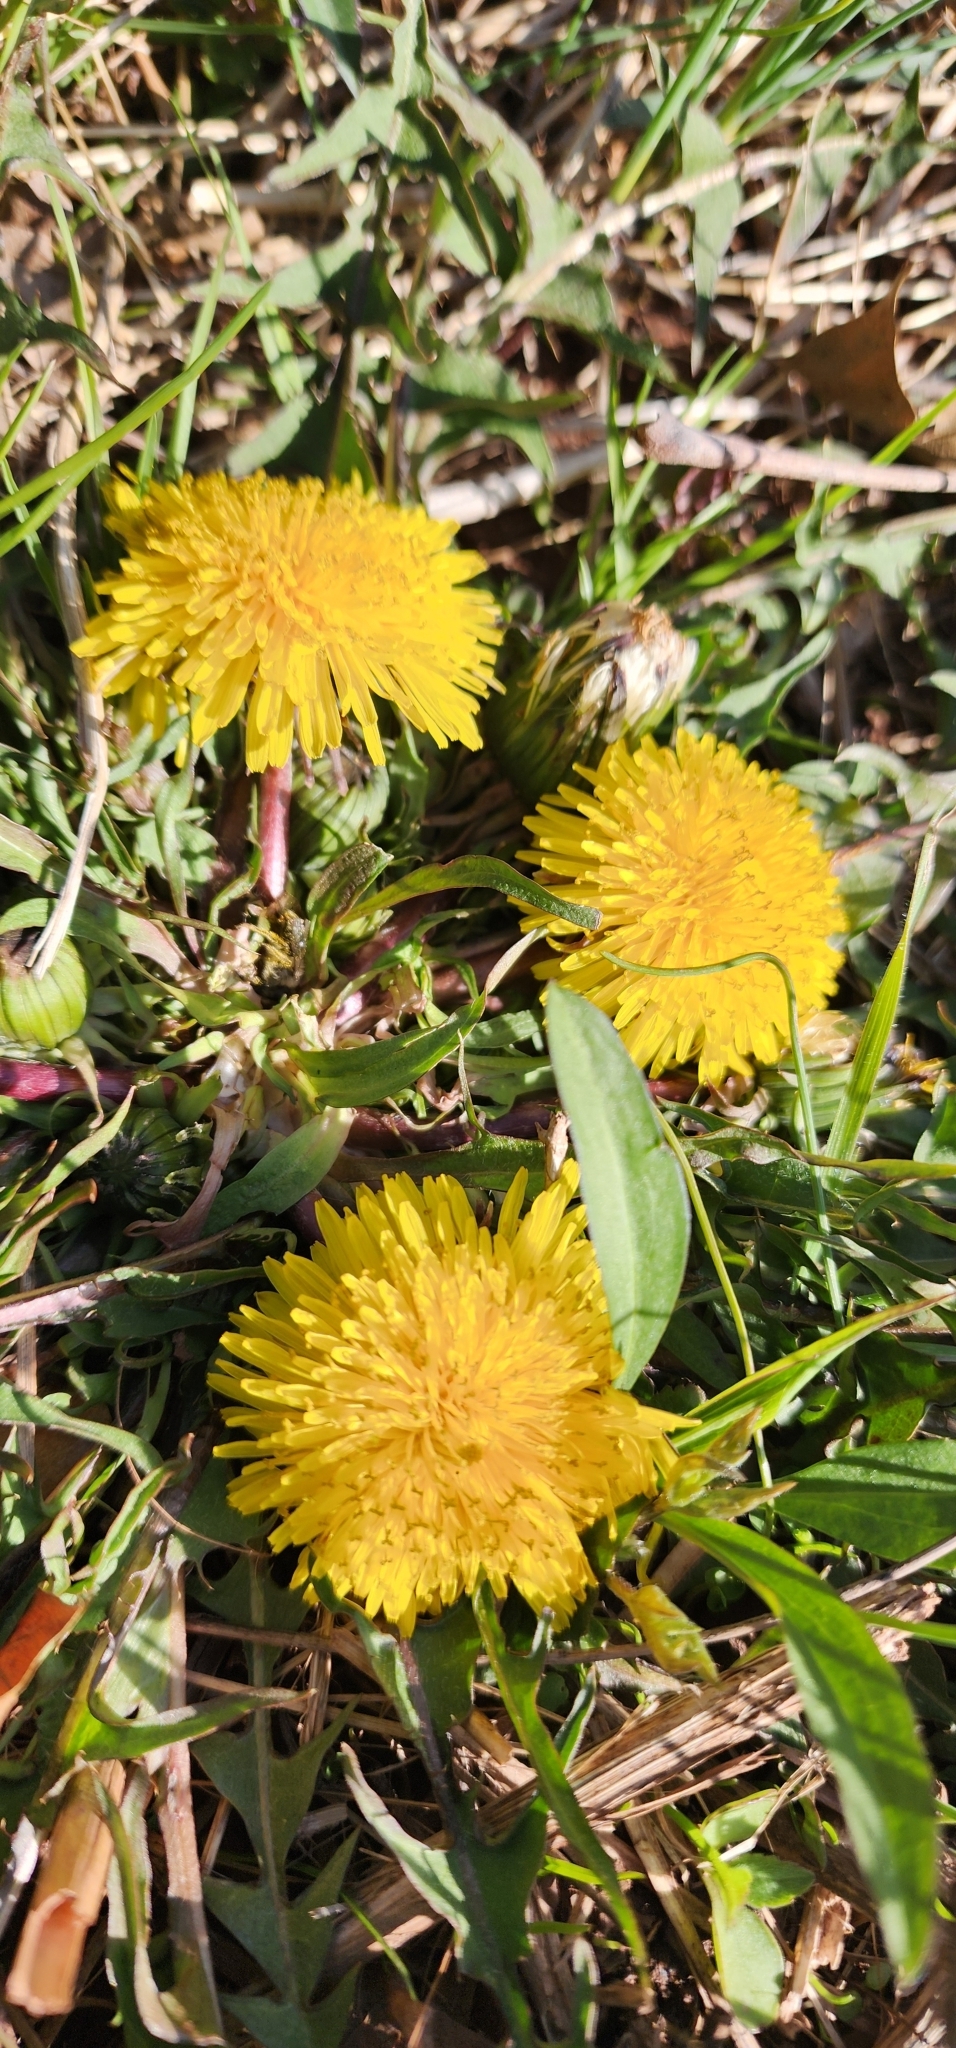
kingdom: Plantae
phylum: Tracheophyta
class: Magnoliopsida
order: Asterales
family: Asteraceae
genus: Taraxacum
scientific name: Taraxacum officinale
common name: Common dandelion
